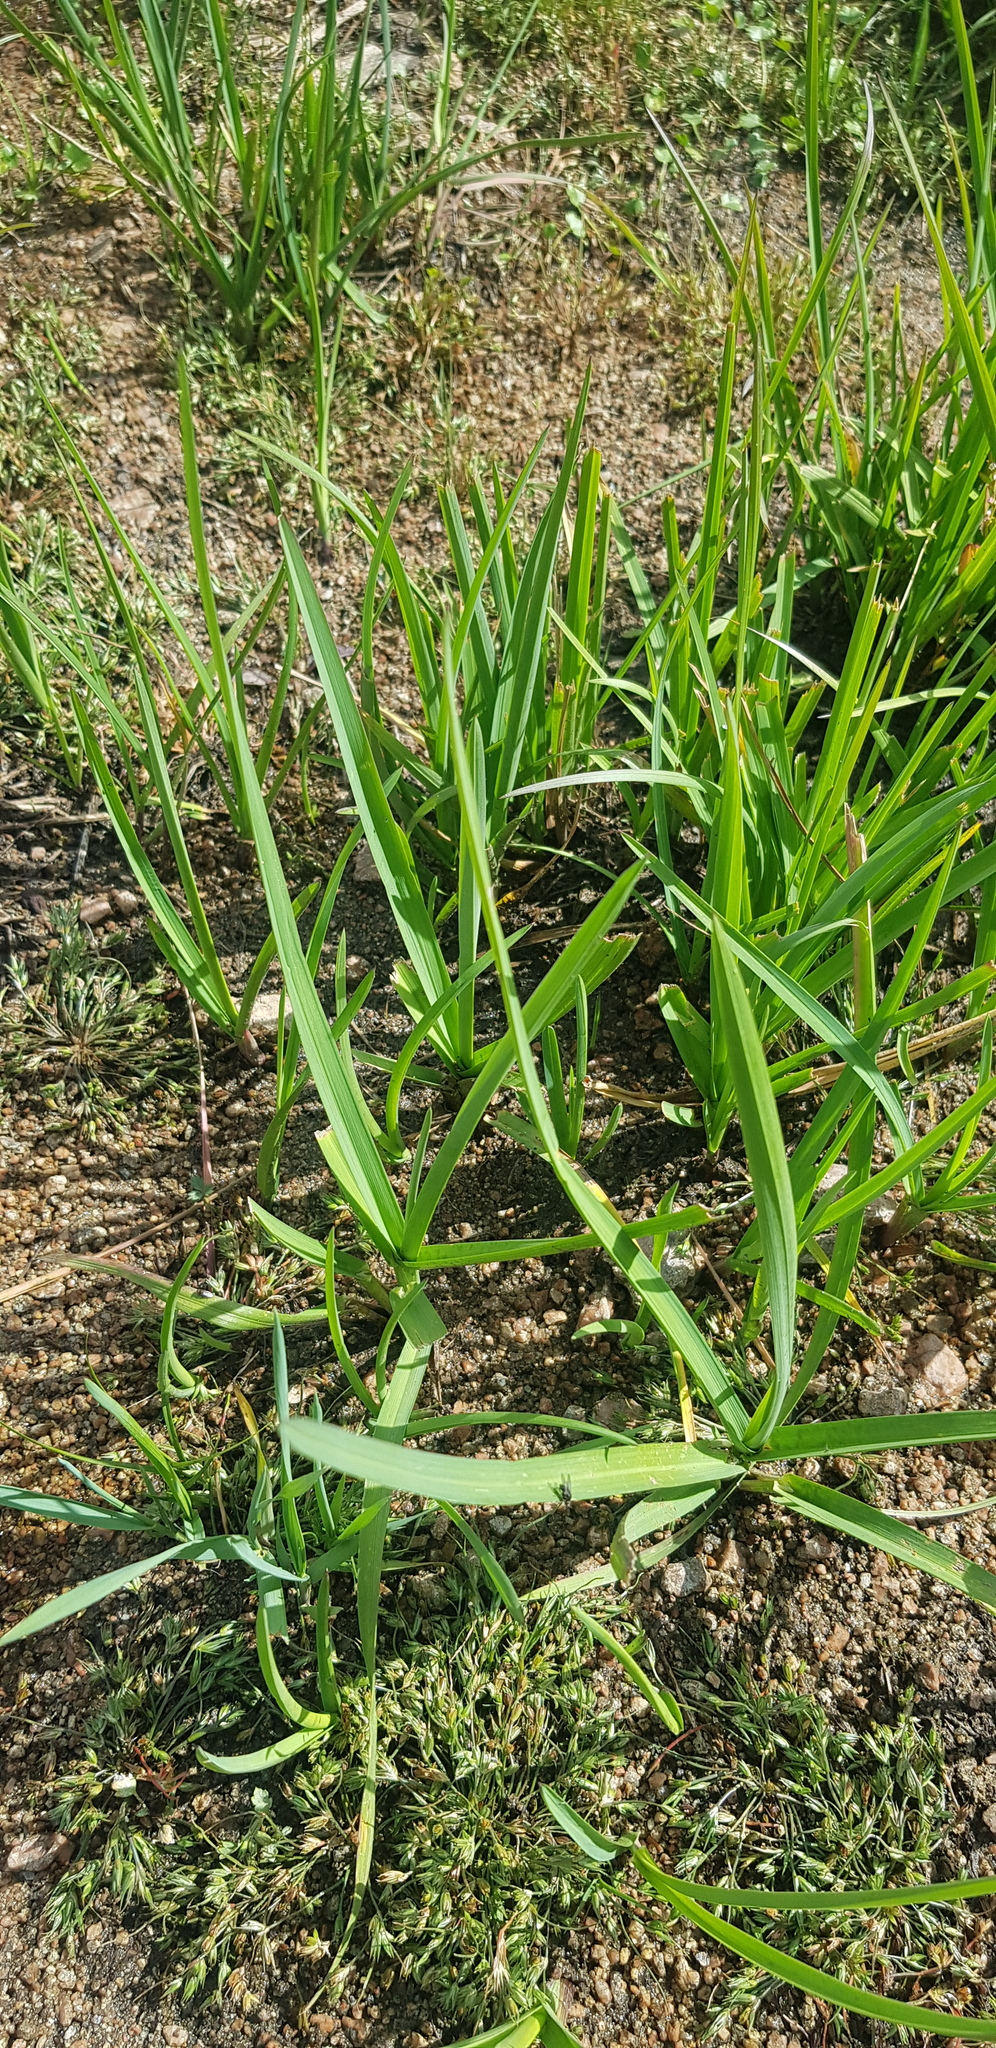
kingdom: Plantae
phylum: Tracheophyta
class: Liliopsida
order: Poales
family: Poaceae
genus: Elymus
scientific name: Elymus repens
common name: Quackgrass
